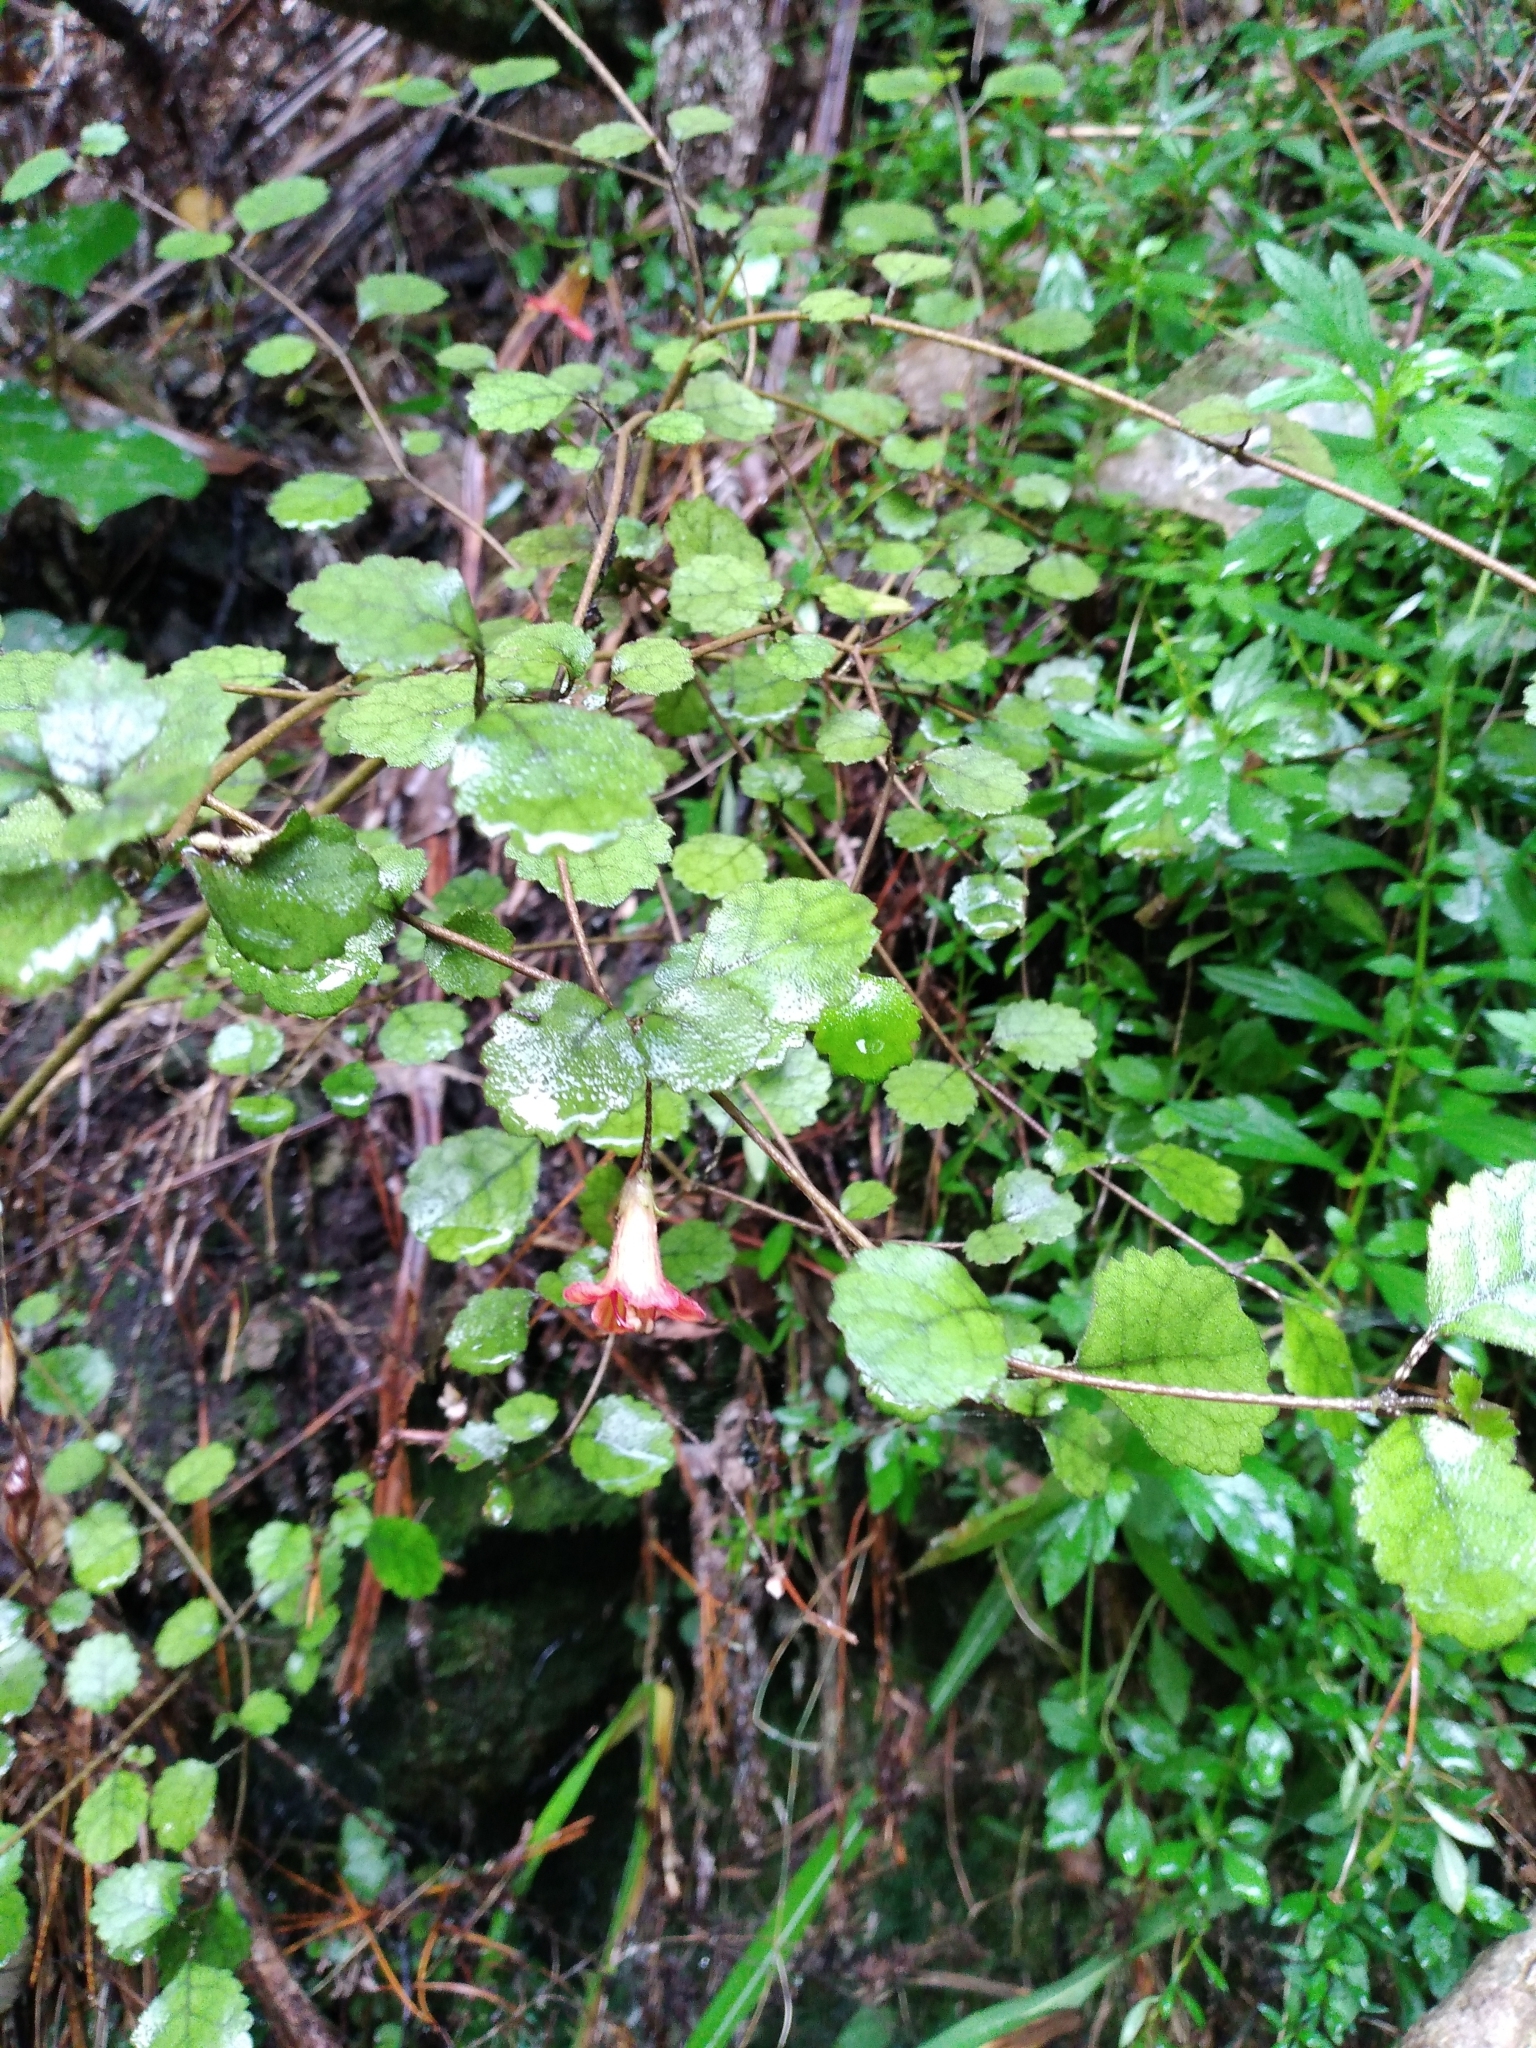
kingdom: Plantae
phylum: Tracheophyta
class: Magnoliopsida
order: Lamiales
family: Gesneriaceae
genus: Rhabdothamnus
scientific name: Rhabdothamnus solandri
